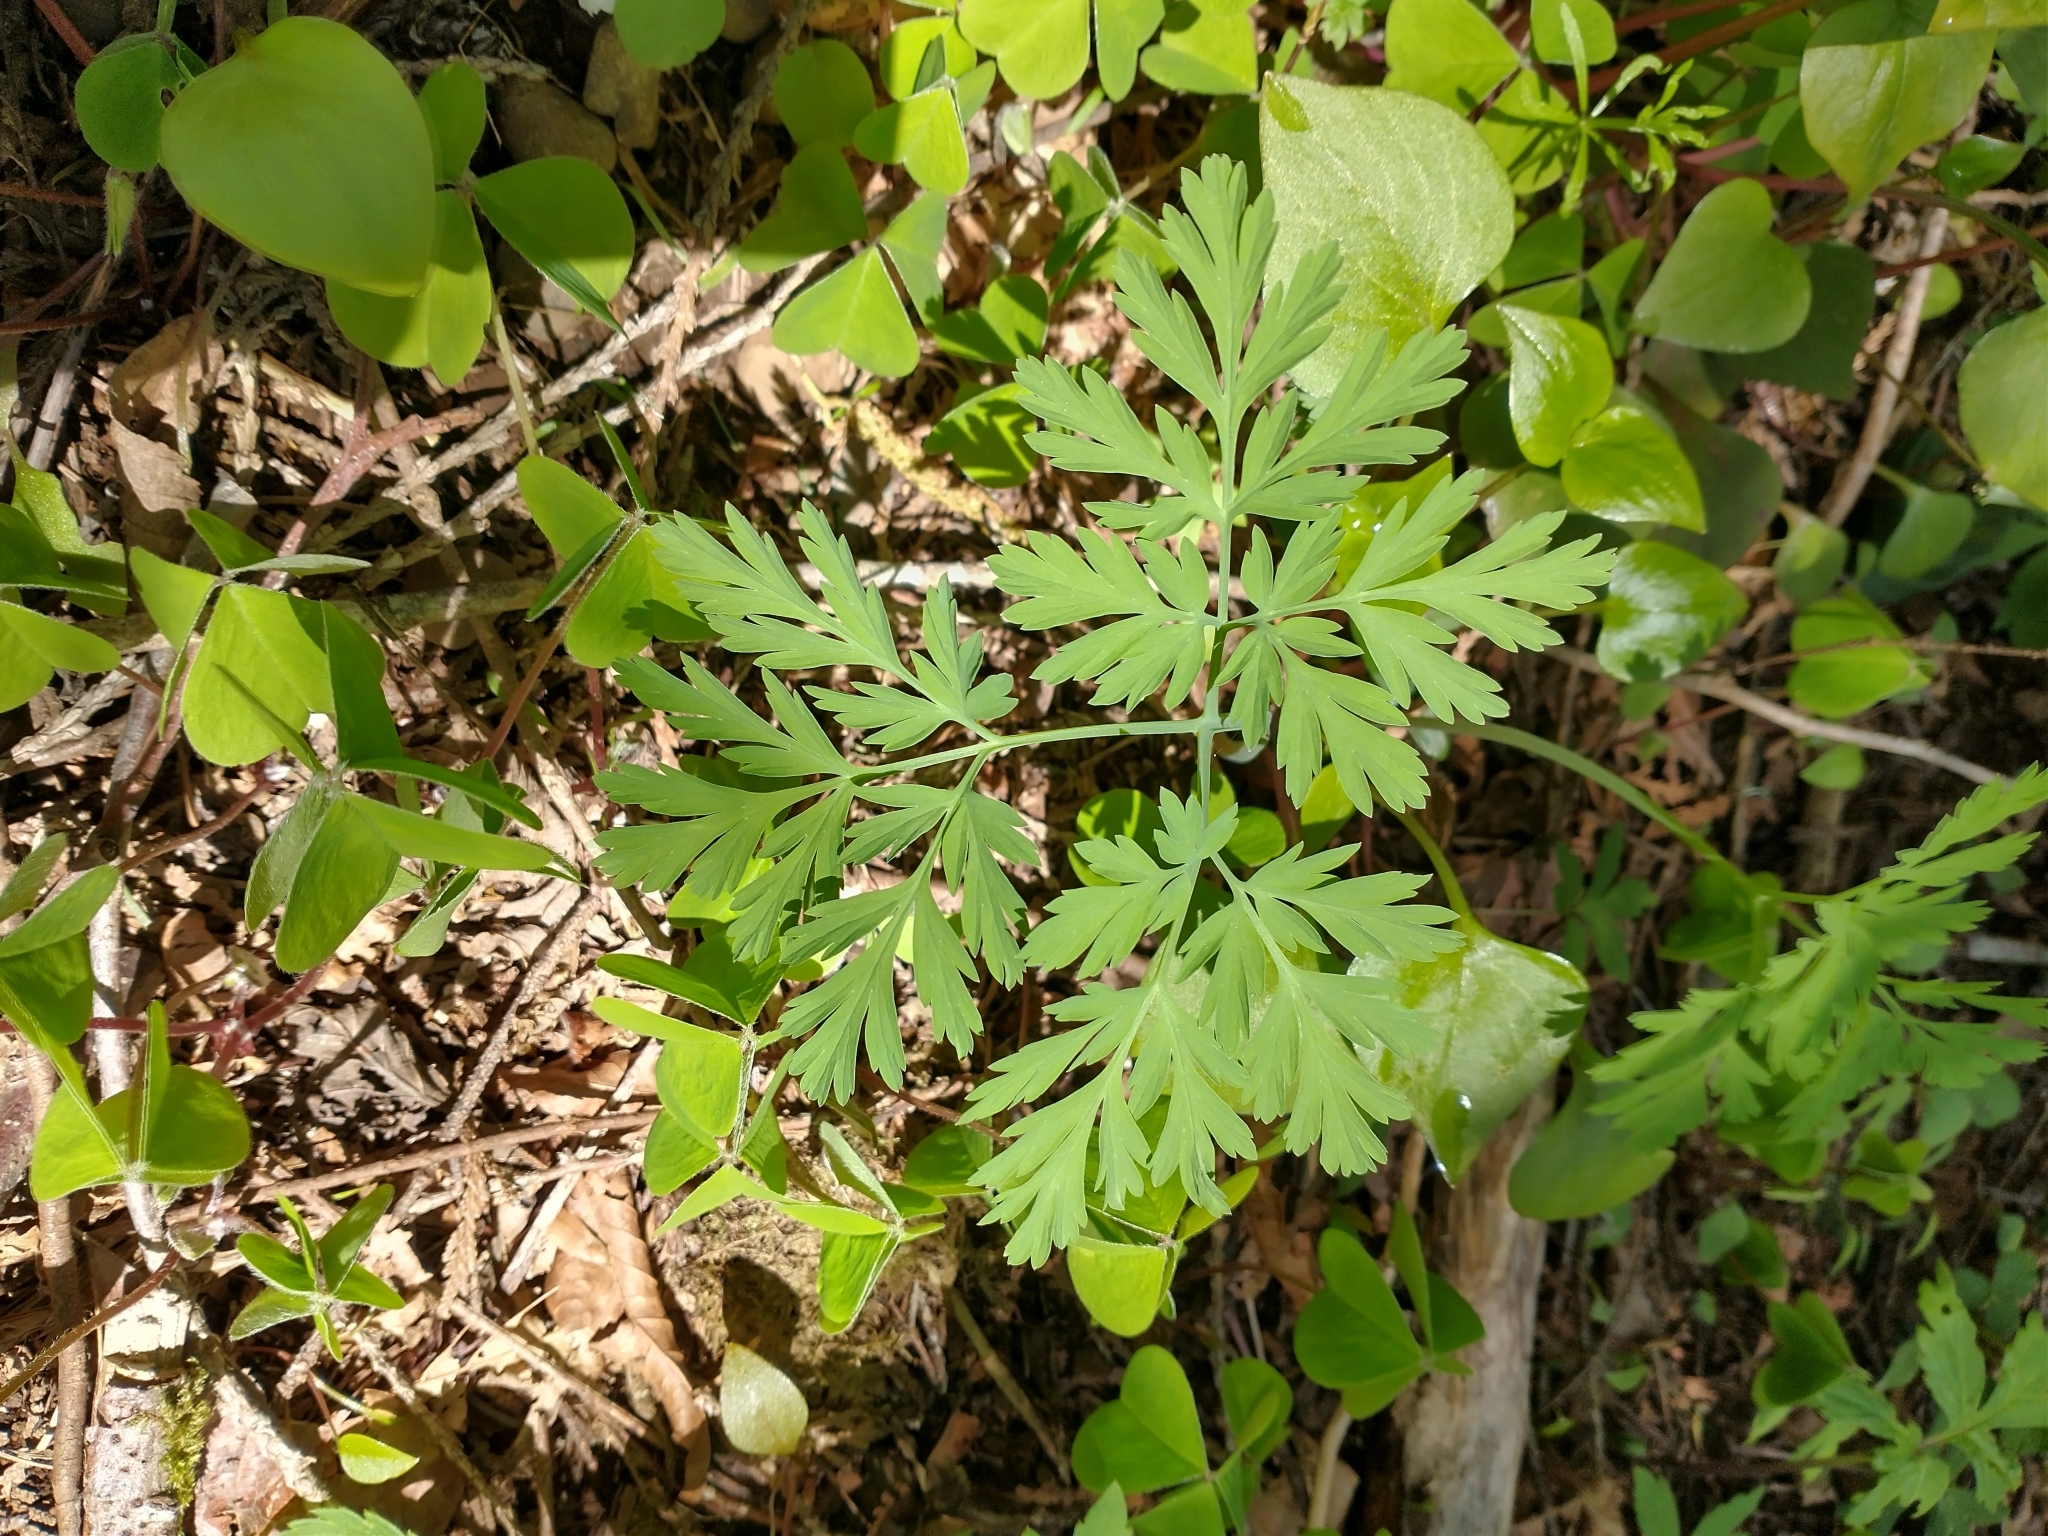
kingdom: Plantae
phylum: Tracheophyta
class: Magnoliopsida
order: Ranunculales
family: Papaveraceae
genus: Dicentra
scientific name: Dicentra formosa
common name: Bleeding-heart
